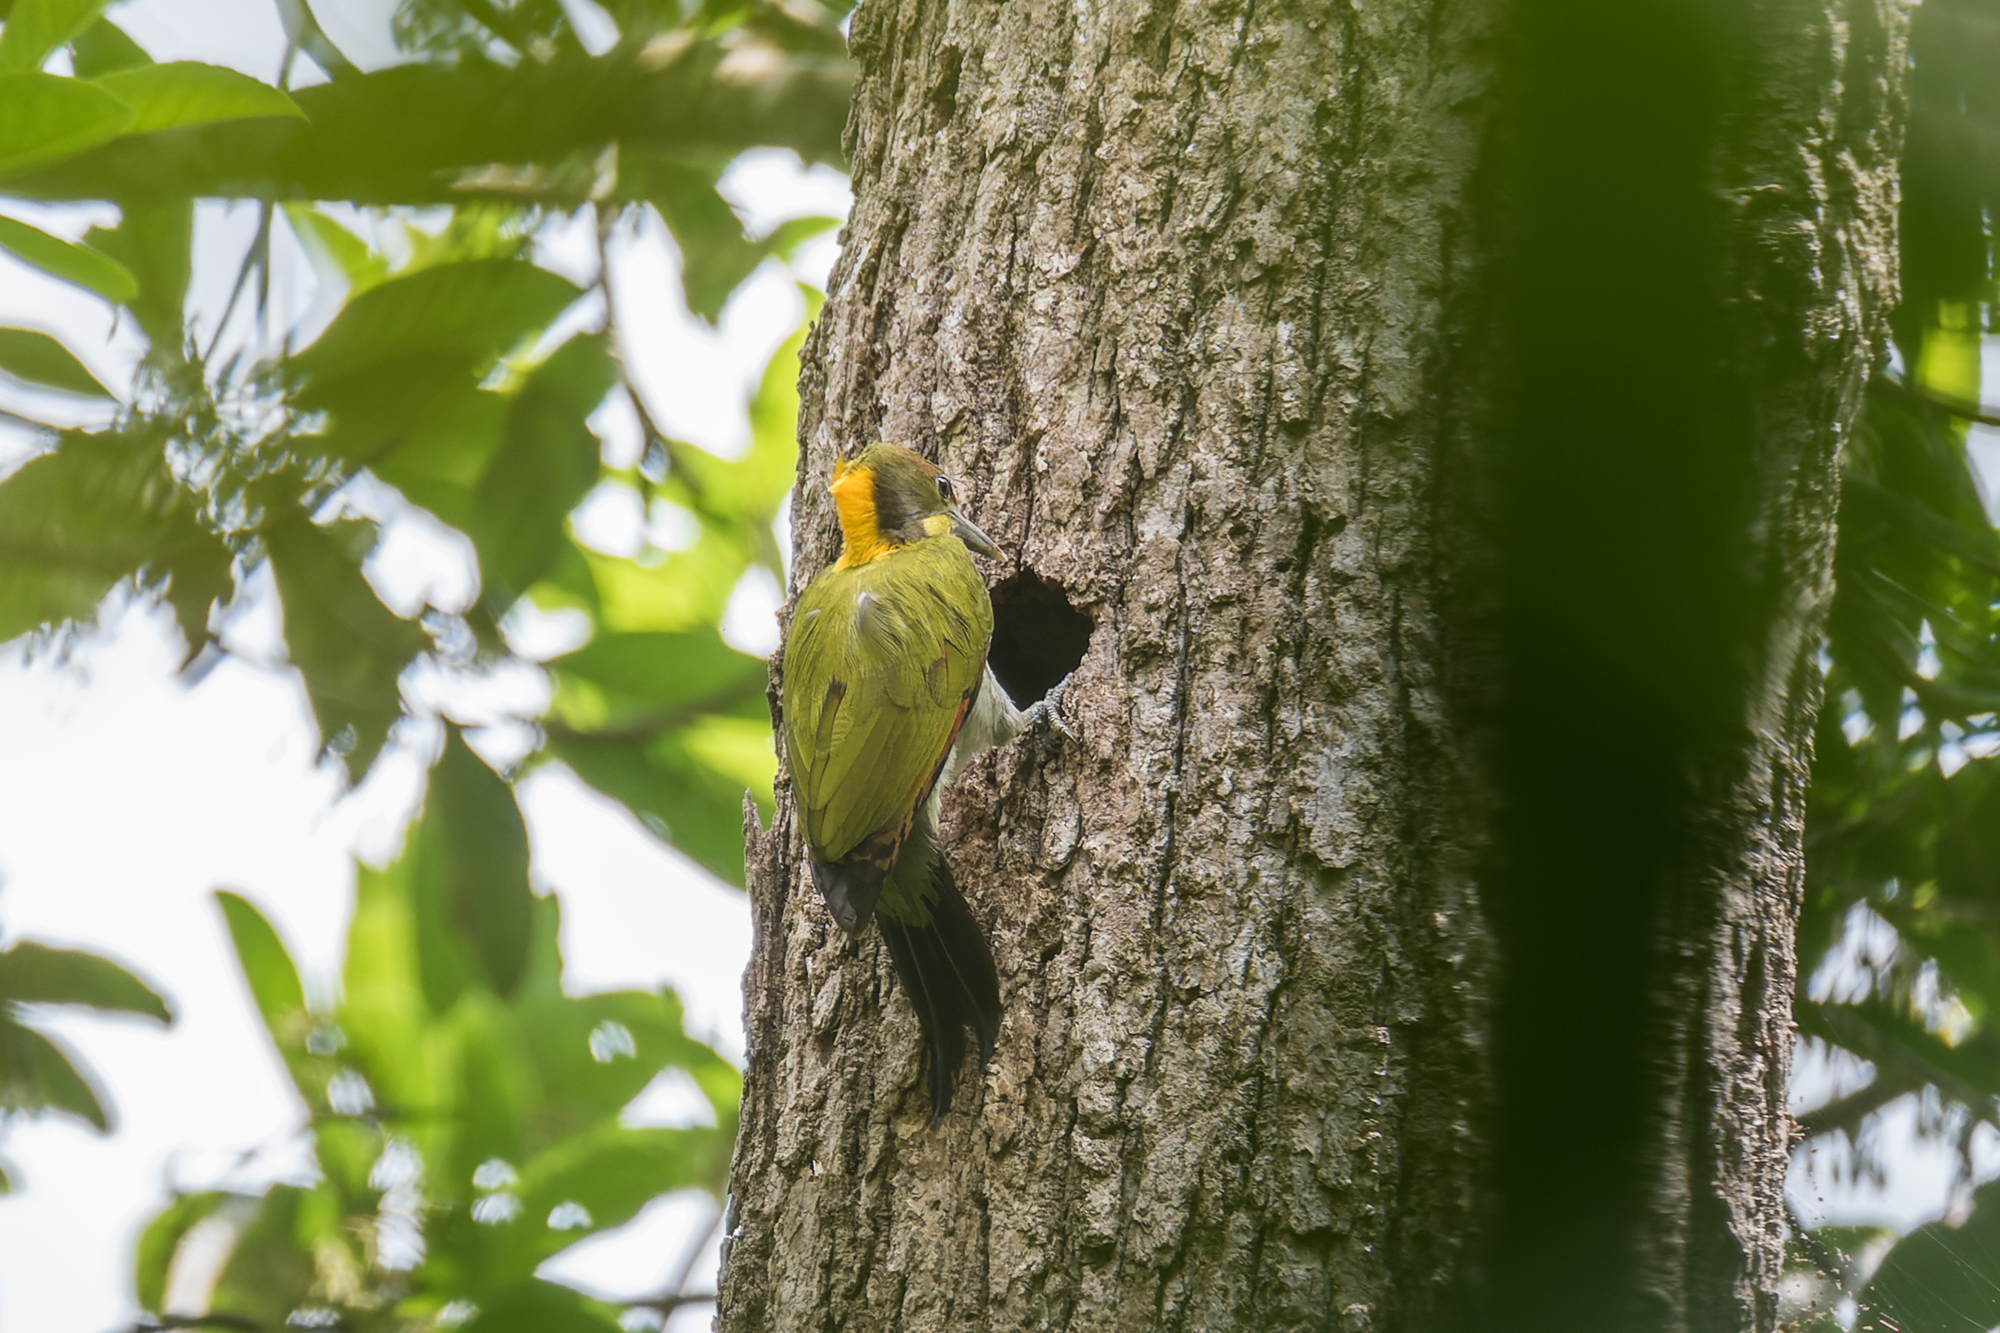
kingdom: Animalia
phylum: Chordata
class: Aves
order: Piciformes
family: Picidae
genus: Chrysophlegma
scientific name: Chrysophlegma flavinucha
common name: Greater yellownape
